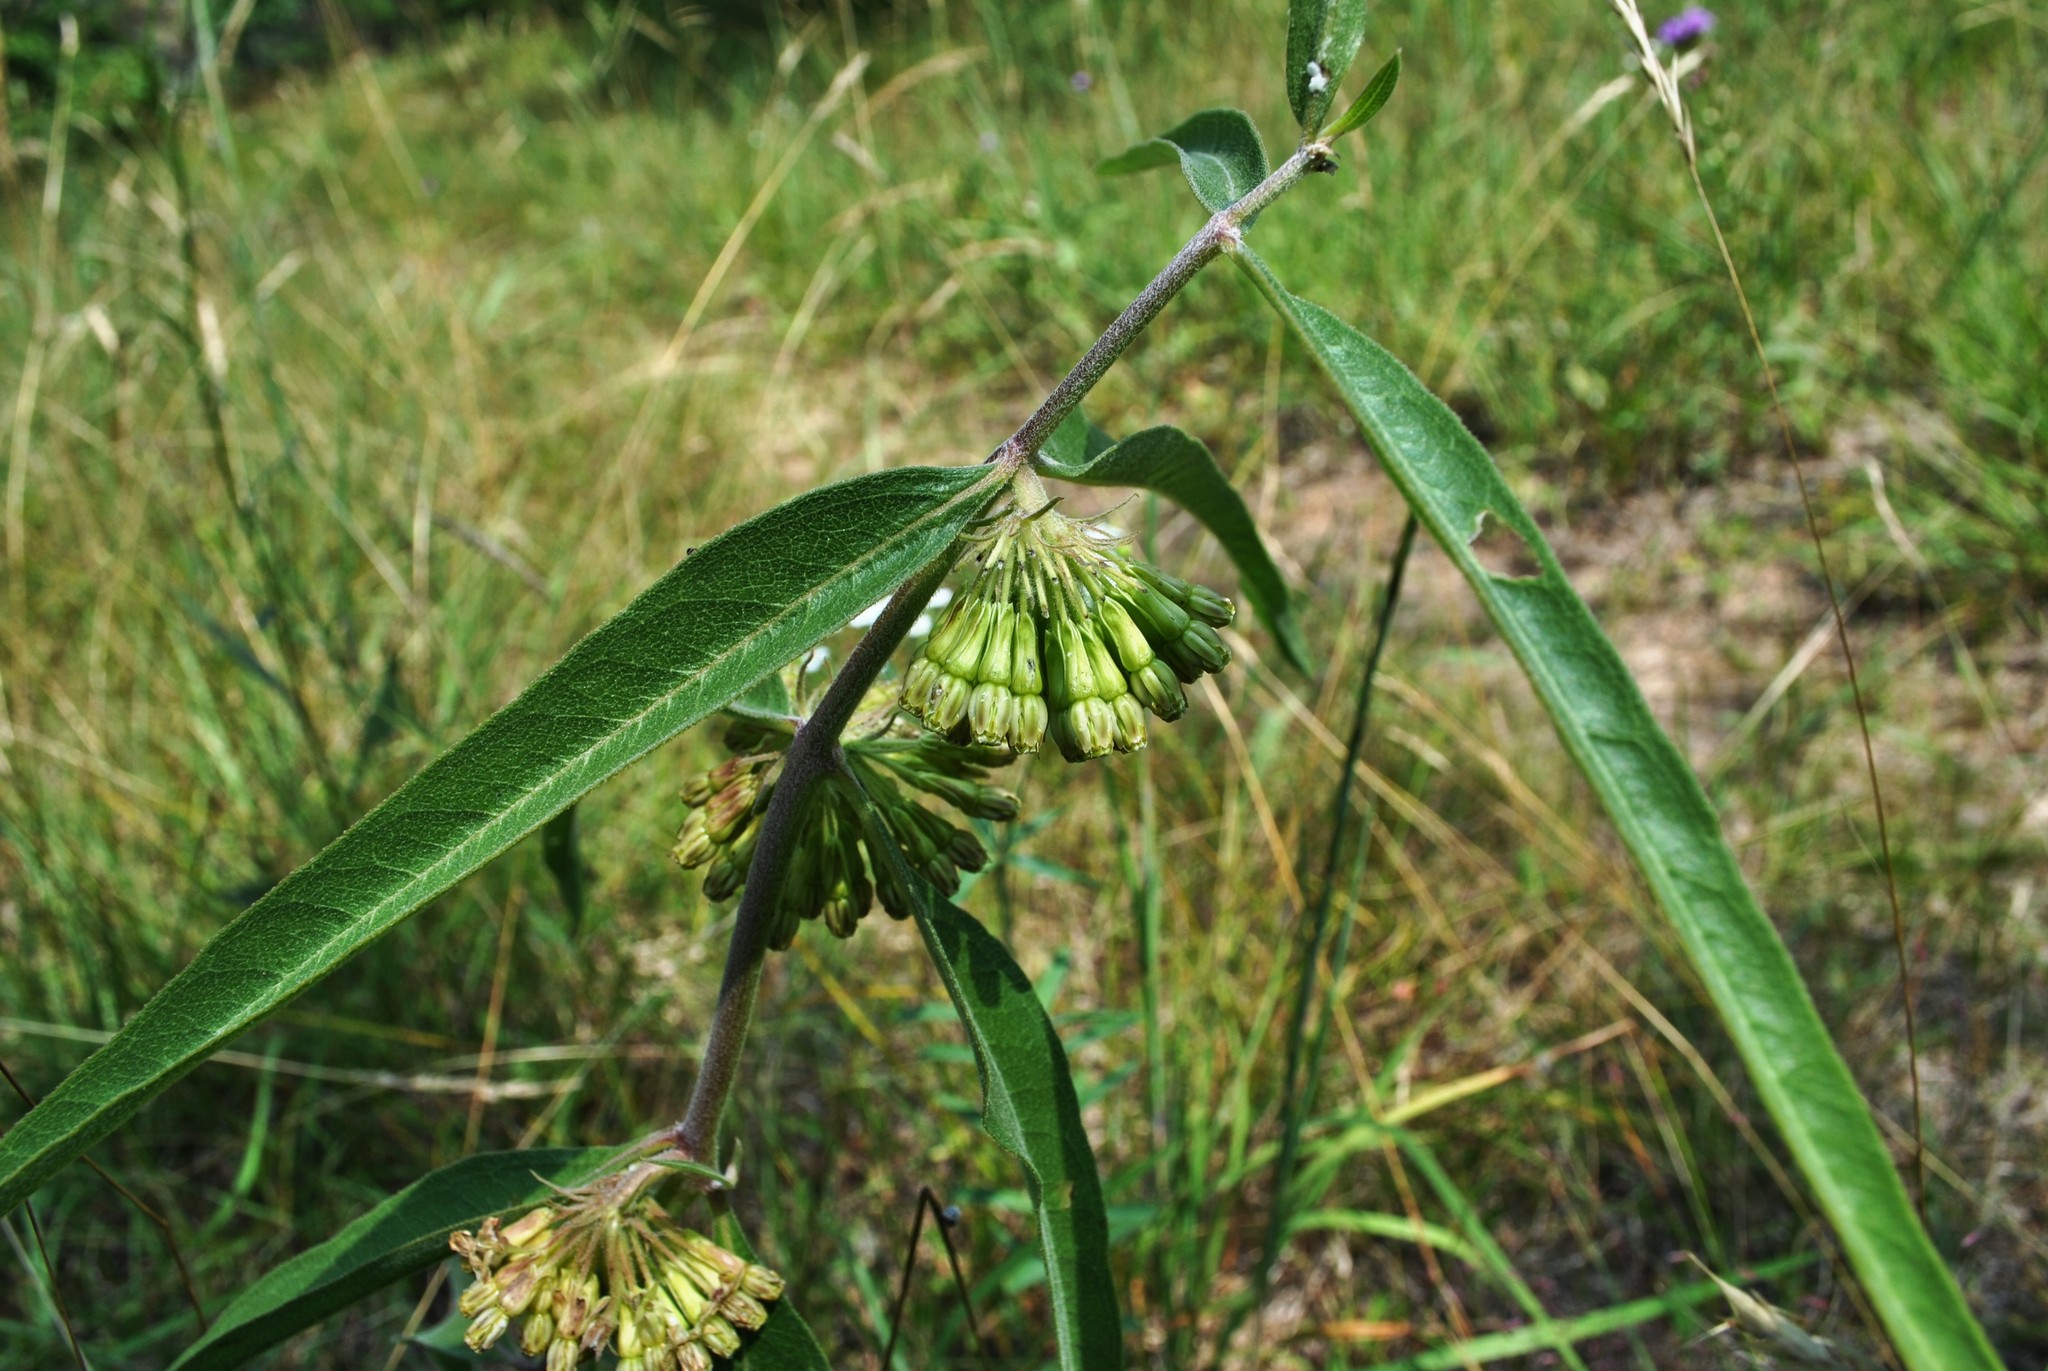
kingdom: Plantae
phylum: Tracheophyta
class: Magnoliopsida
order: Gentianales
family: Apocynaceae
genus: Asclepias
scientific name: Asclepias viridiflora
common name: Green comet milkweed
